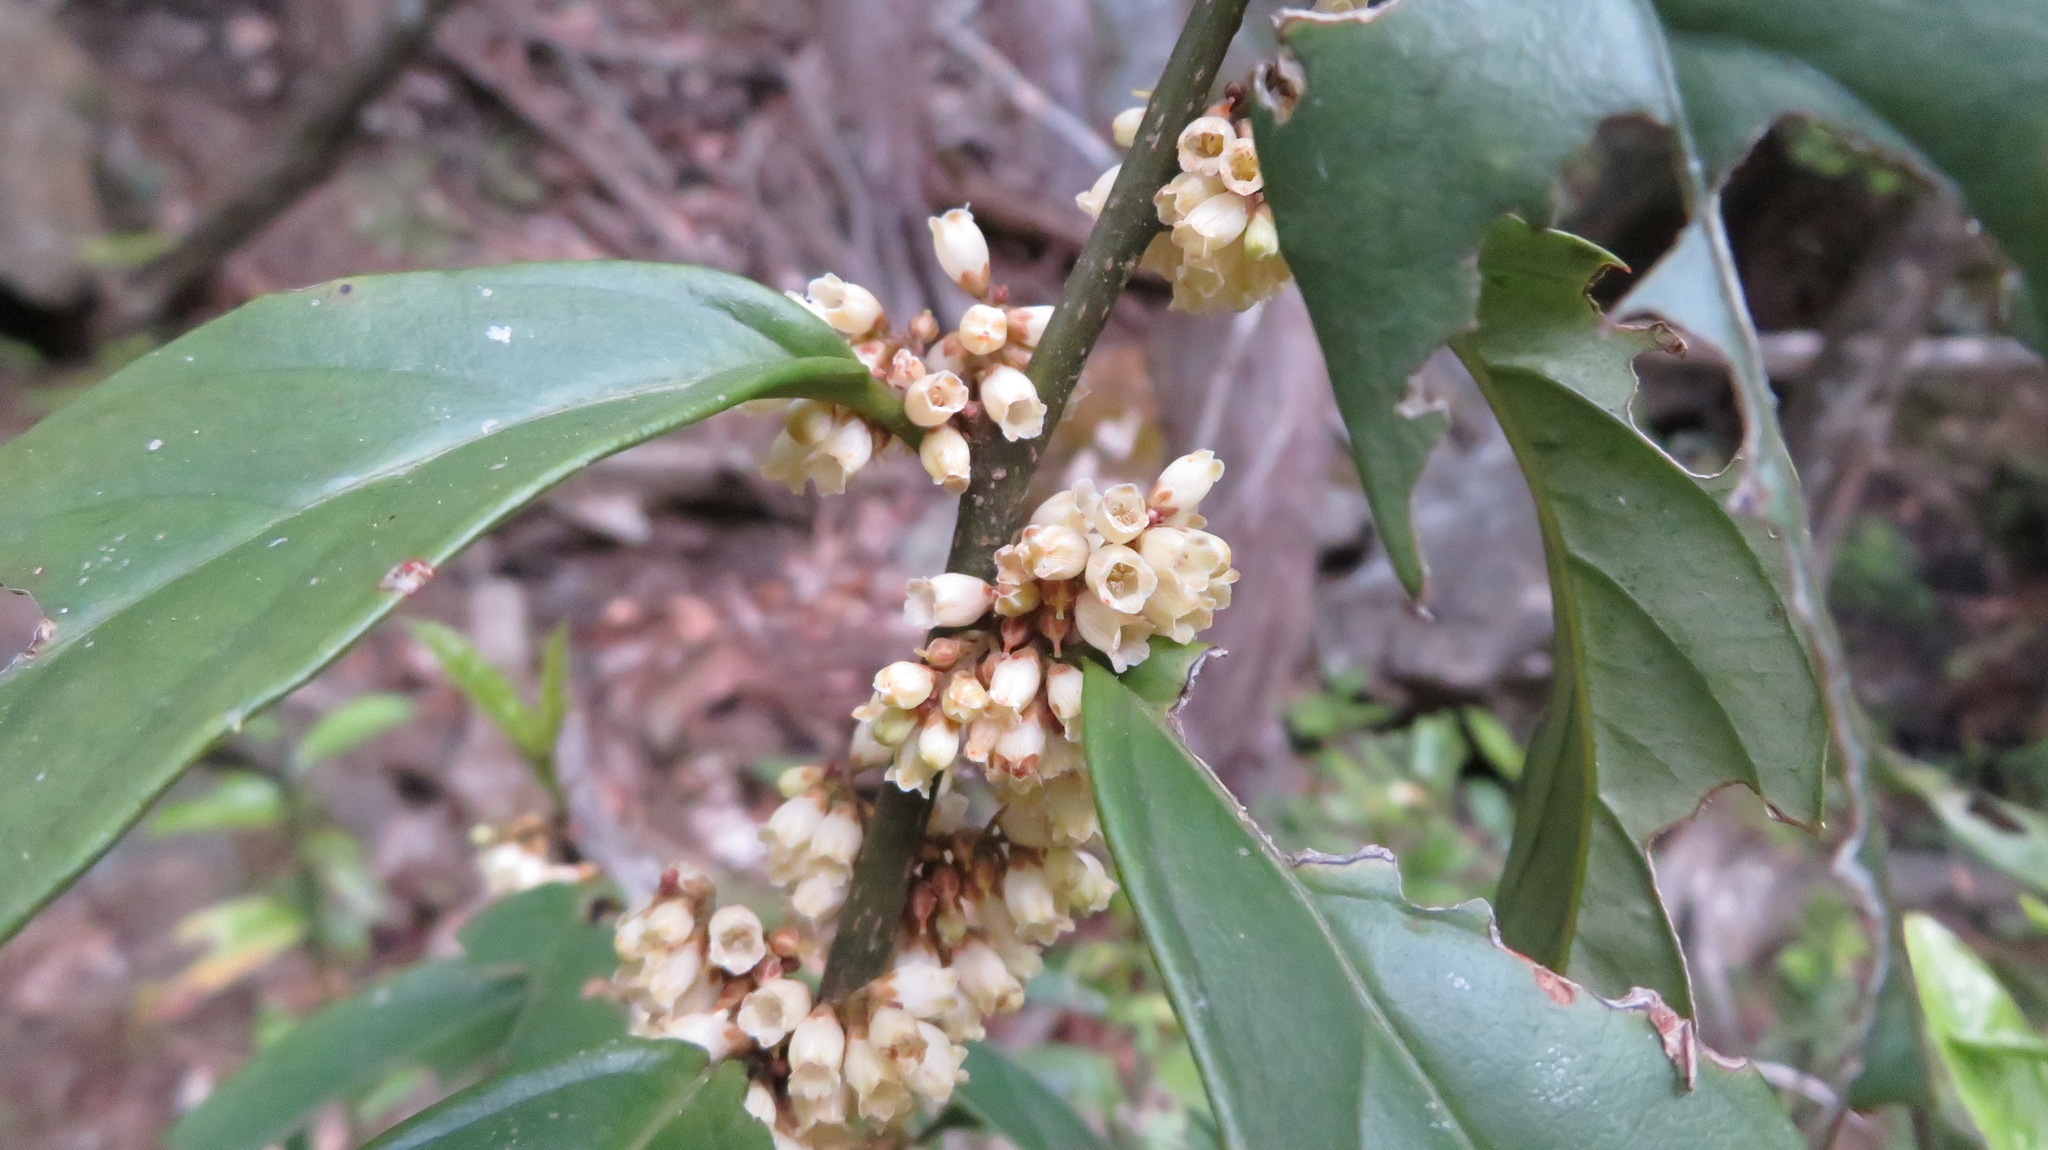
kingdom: Plantae
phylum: Tracheophyta
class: Magnoliopsida
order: Ericales
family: Primulaceae
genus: Maesa
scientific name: Maesa japonica
